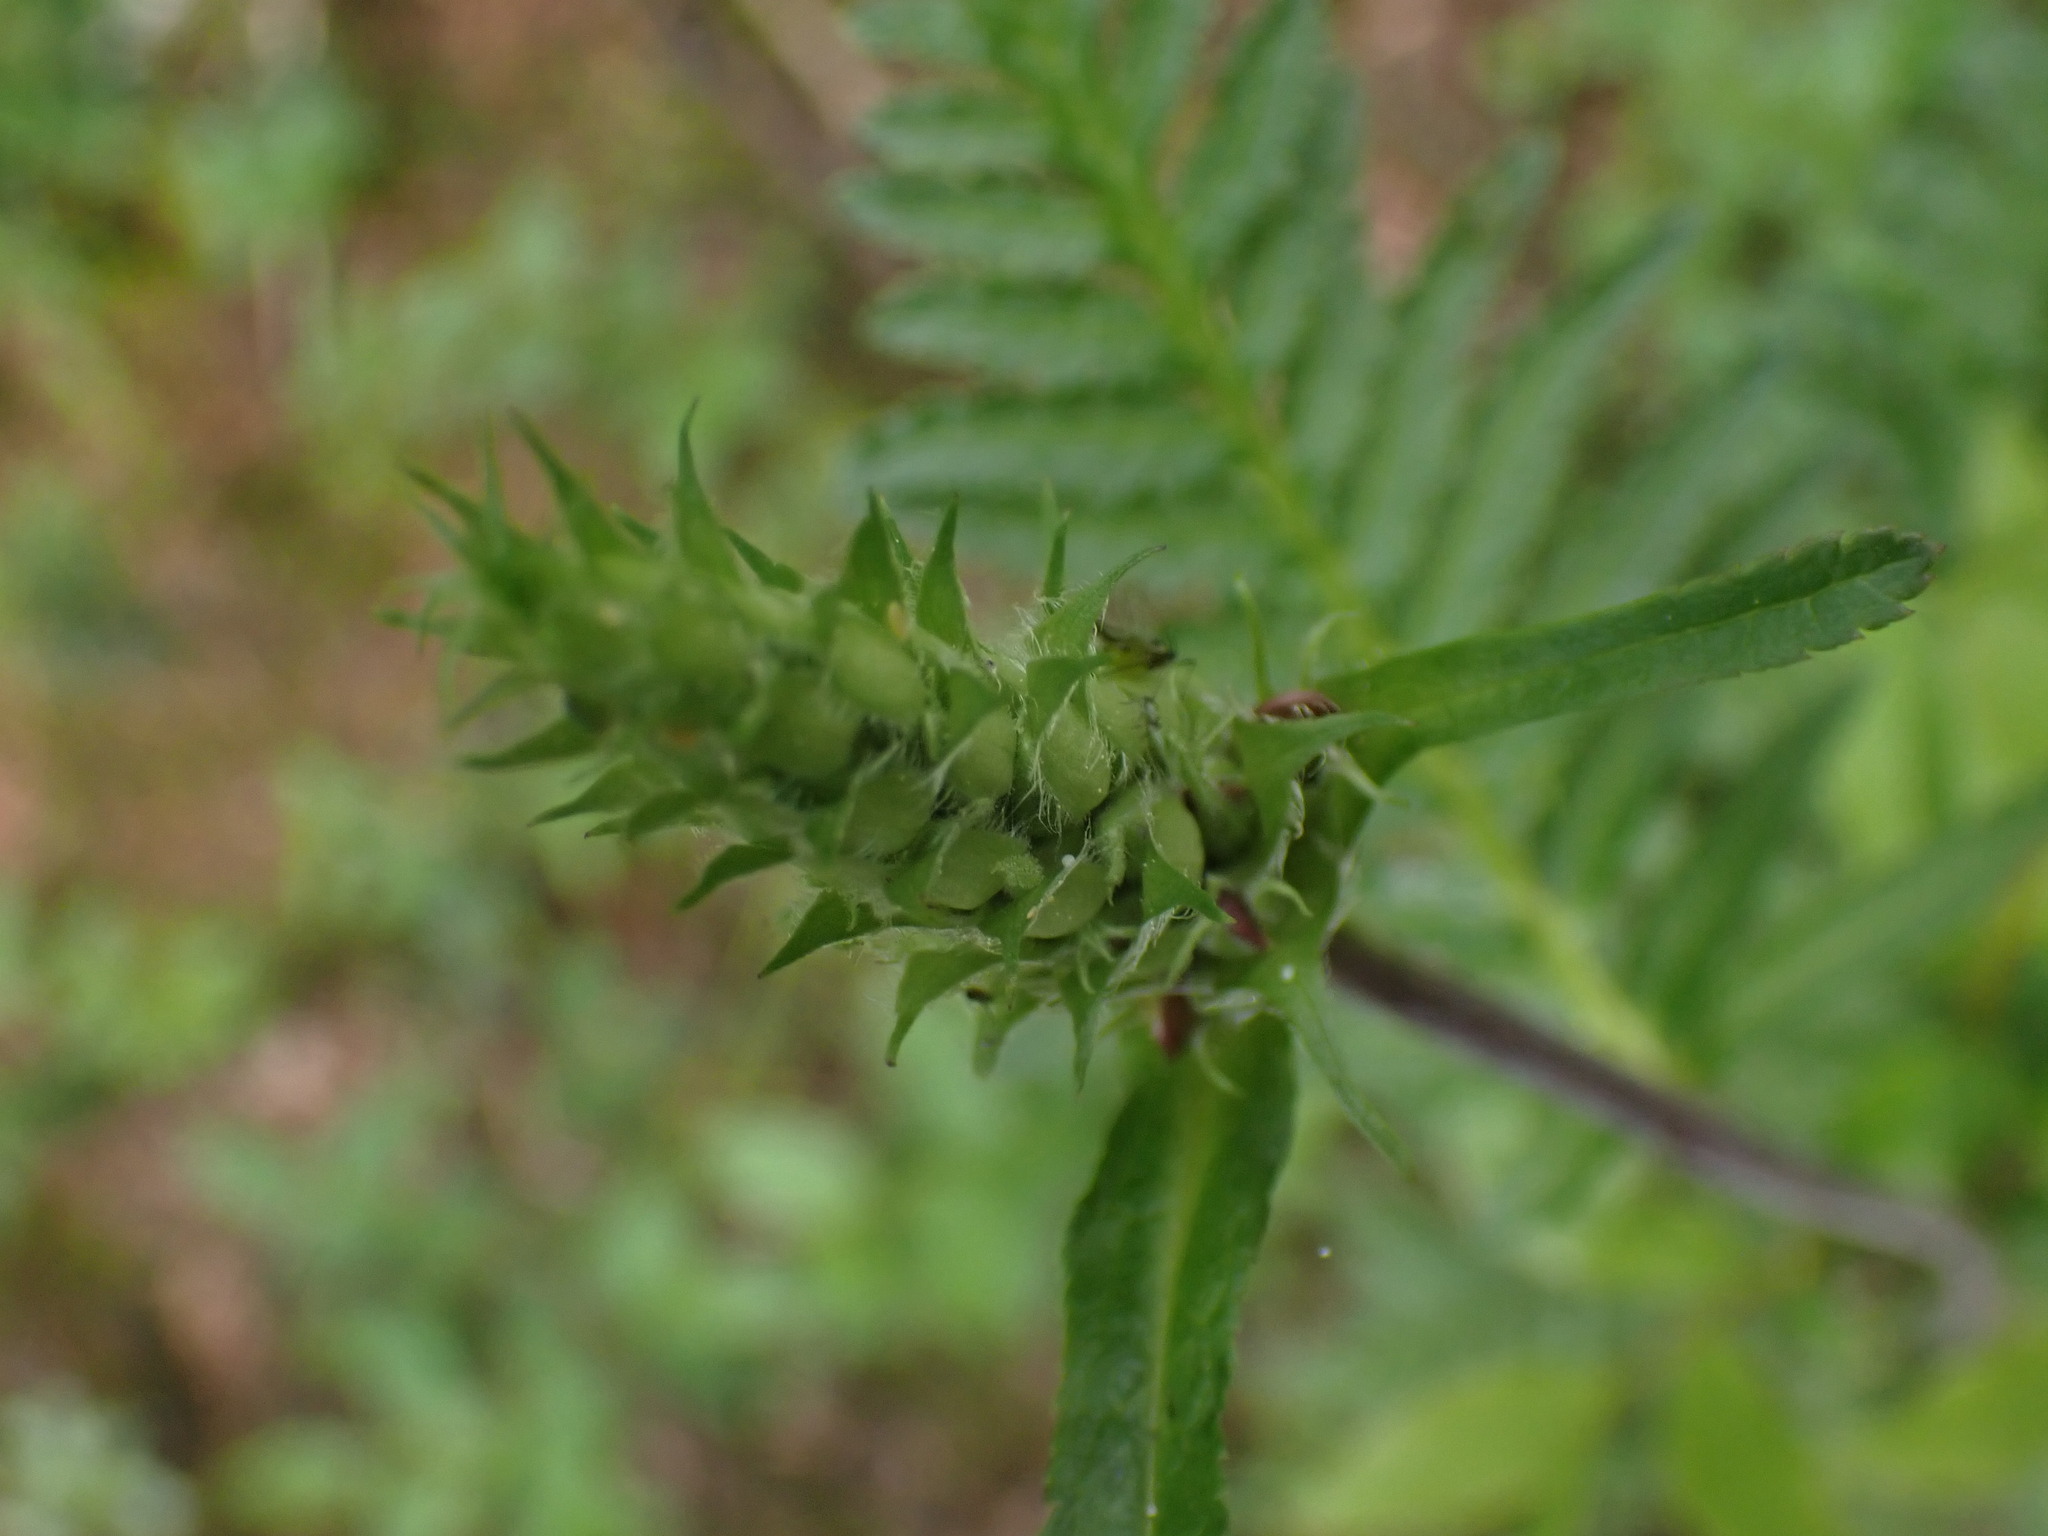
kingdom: Plantae
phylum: Tracheophyta
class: Magnoliopsida
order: Lamiales
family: Orobanchaceae
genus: Pedicularis
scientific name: Pedicularis bracteosa
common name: Bracted lousewort
